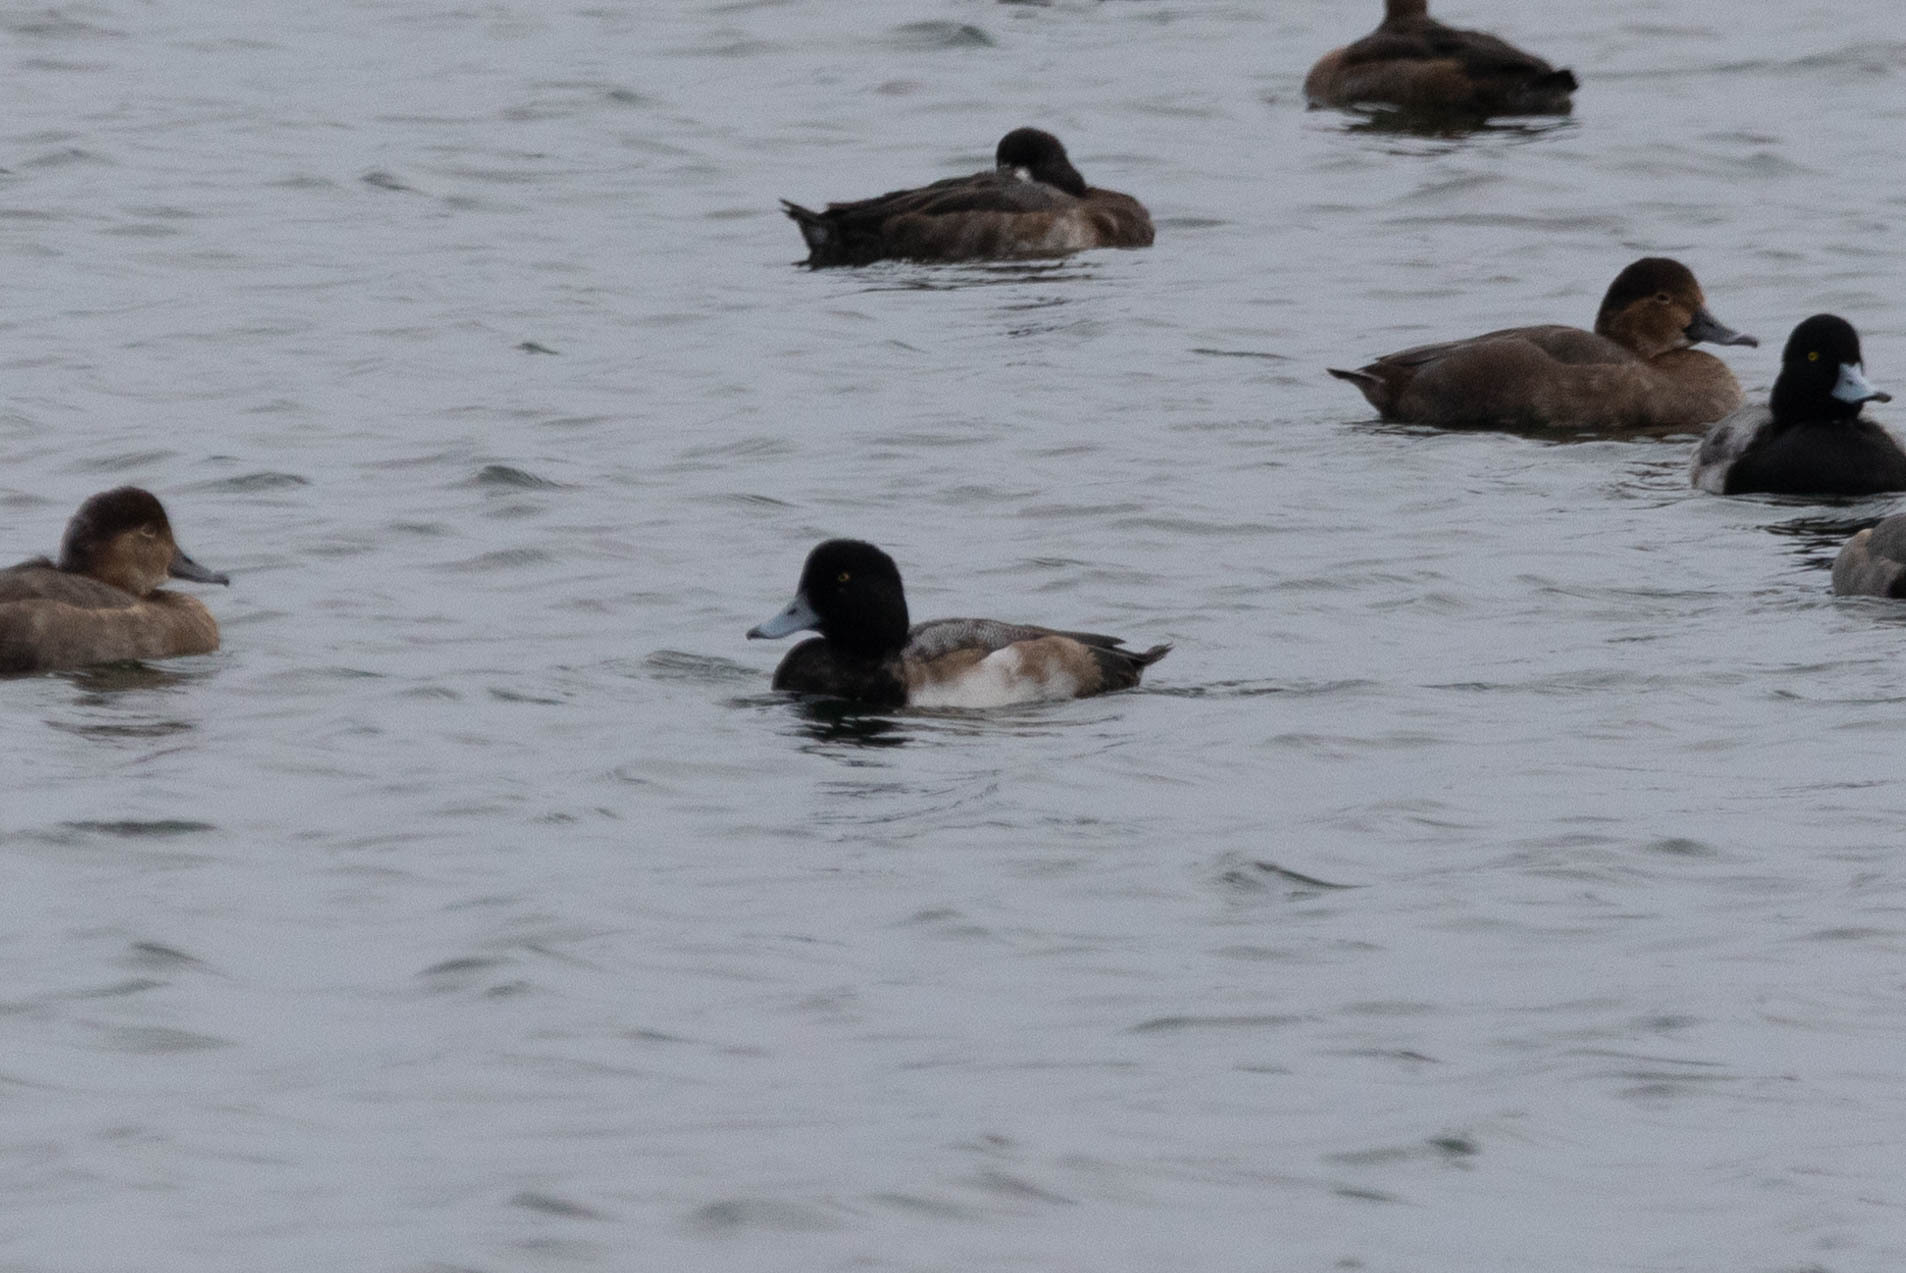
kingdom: Animalia
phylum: Chordata
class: Aves
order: Anseriformes
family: Anatidae
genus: Aythya
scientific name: Aythya marila
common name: Greater scaup
